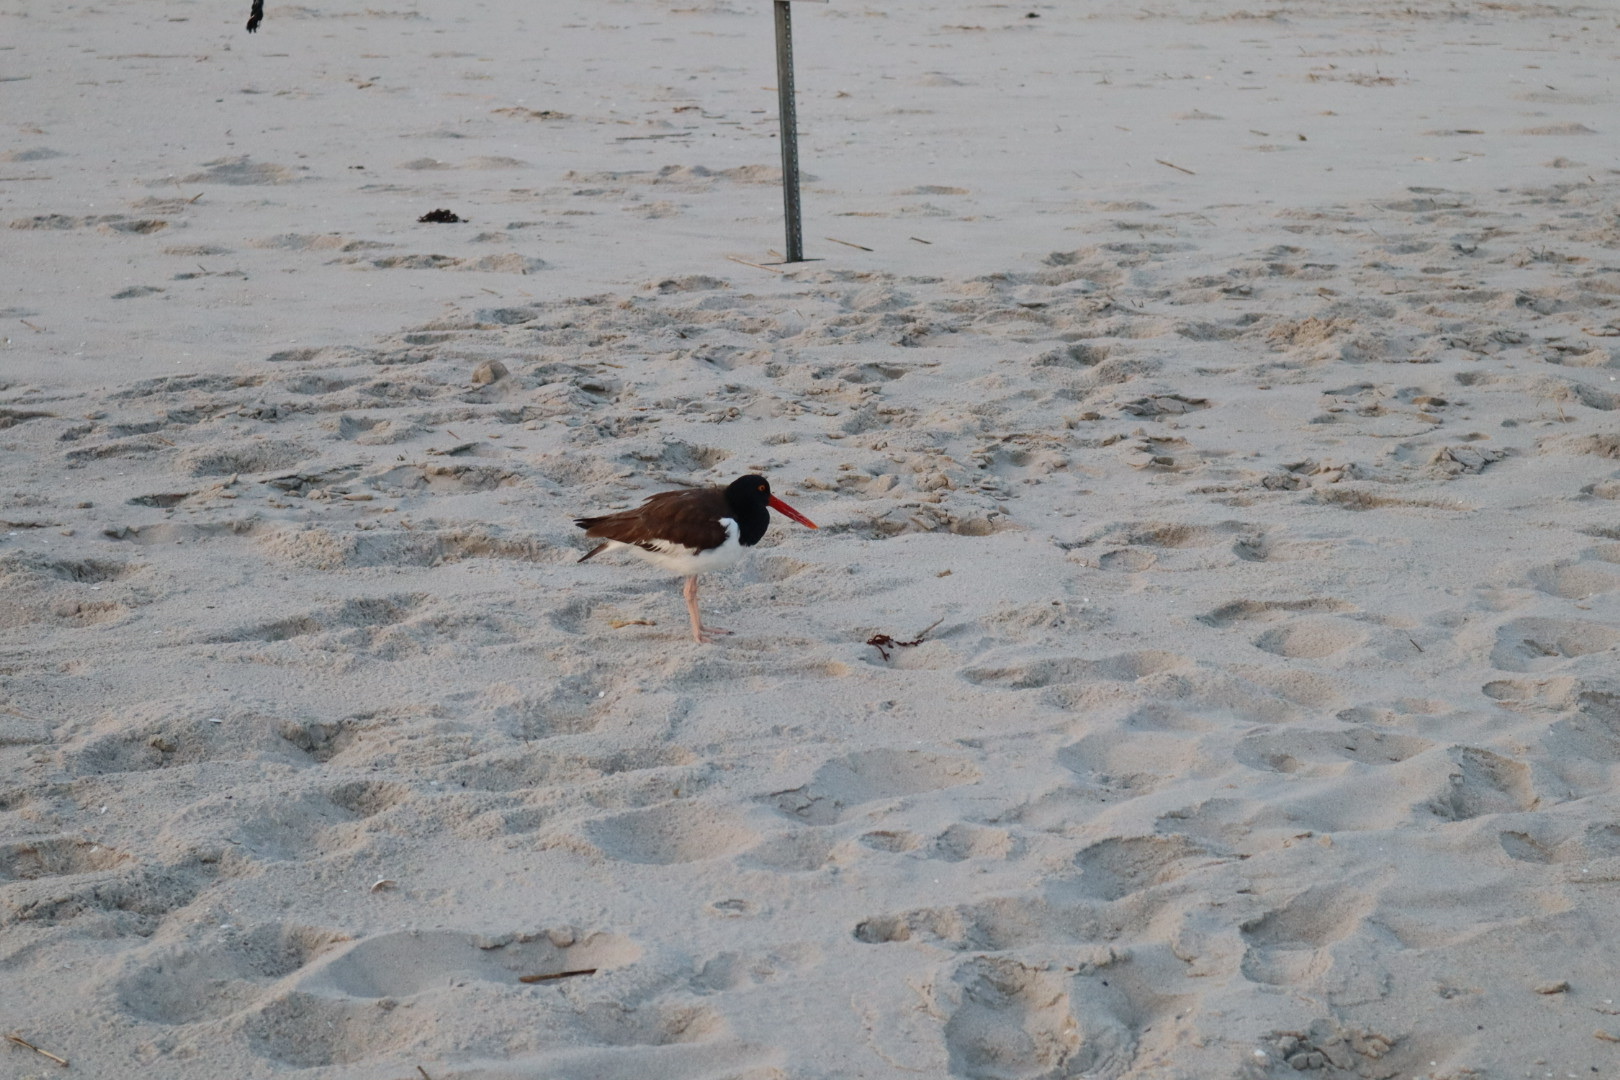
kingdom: Animalia
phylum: Chordata
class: Aves
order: Charadriiformes
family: Haematopodidae
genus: Haematopus
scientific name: Haematopus palliatus
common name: American oystercatcher
